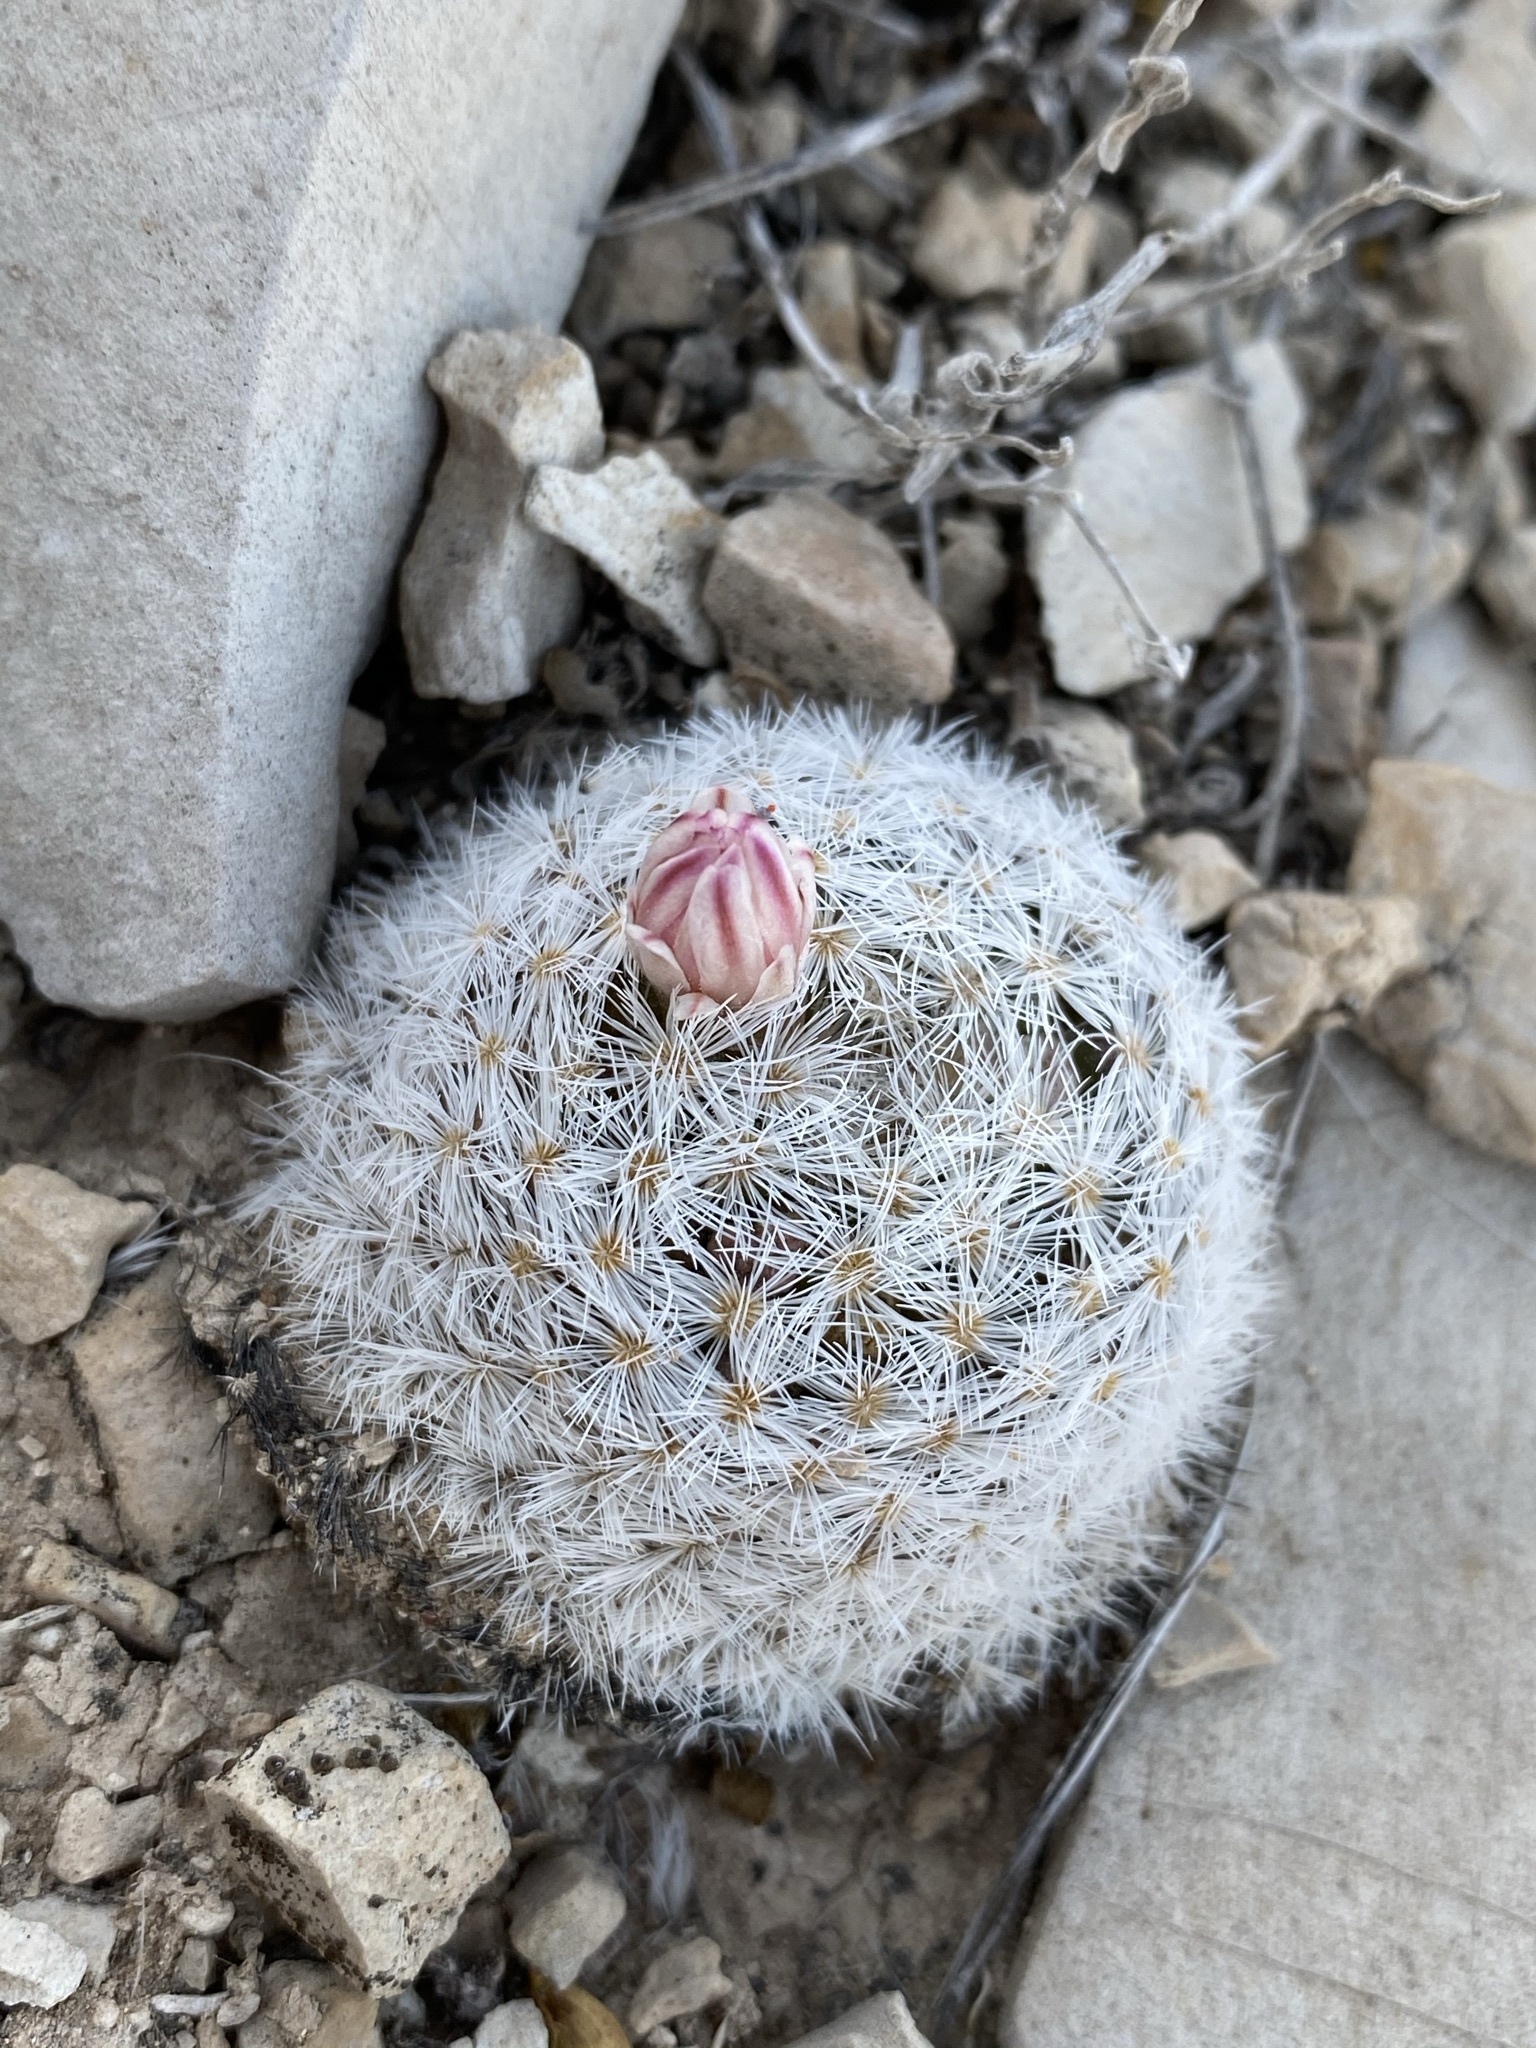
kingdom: Plantae
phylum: Tracheophyta
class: Magnoliopsida
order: Caryophyllales
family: Cactaceae
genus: Mammillaria
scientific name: Mammillaria lasiacantha
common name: Lace-spine nipple cactus
